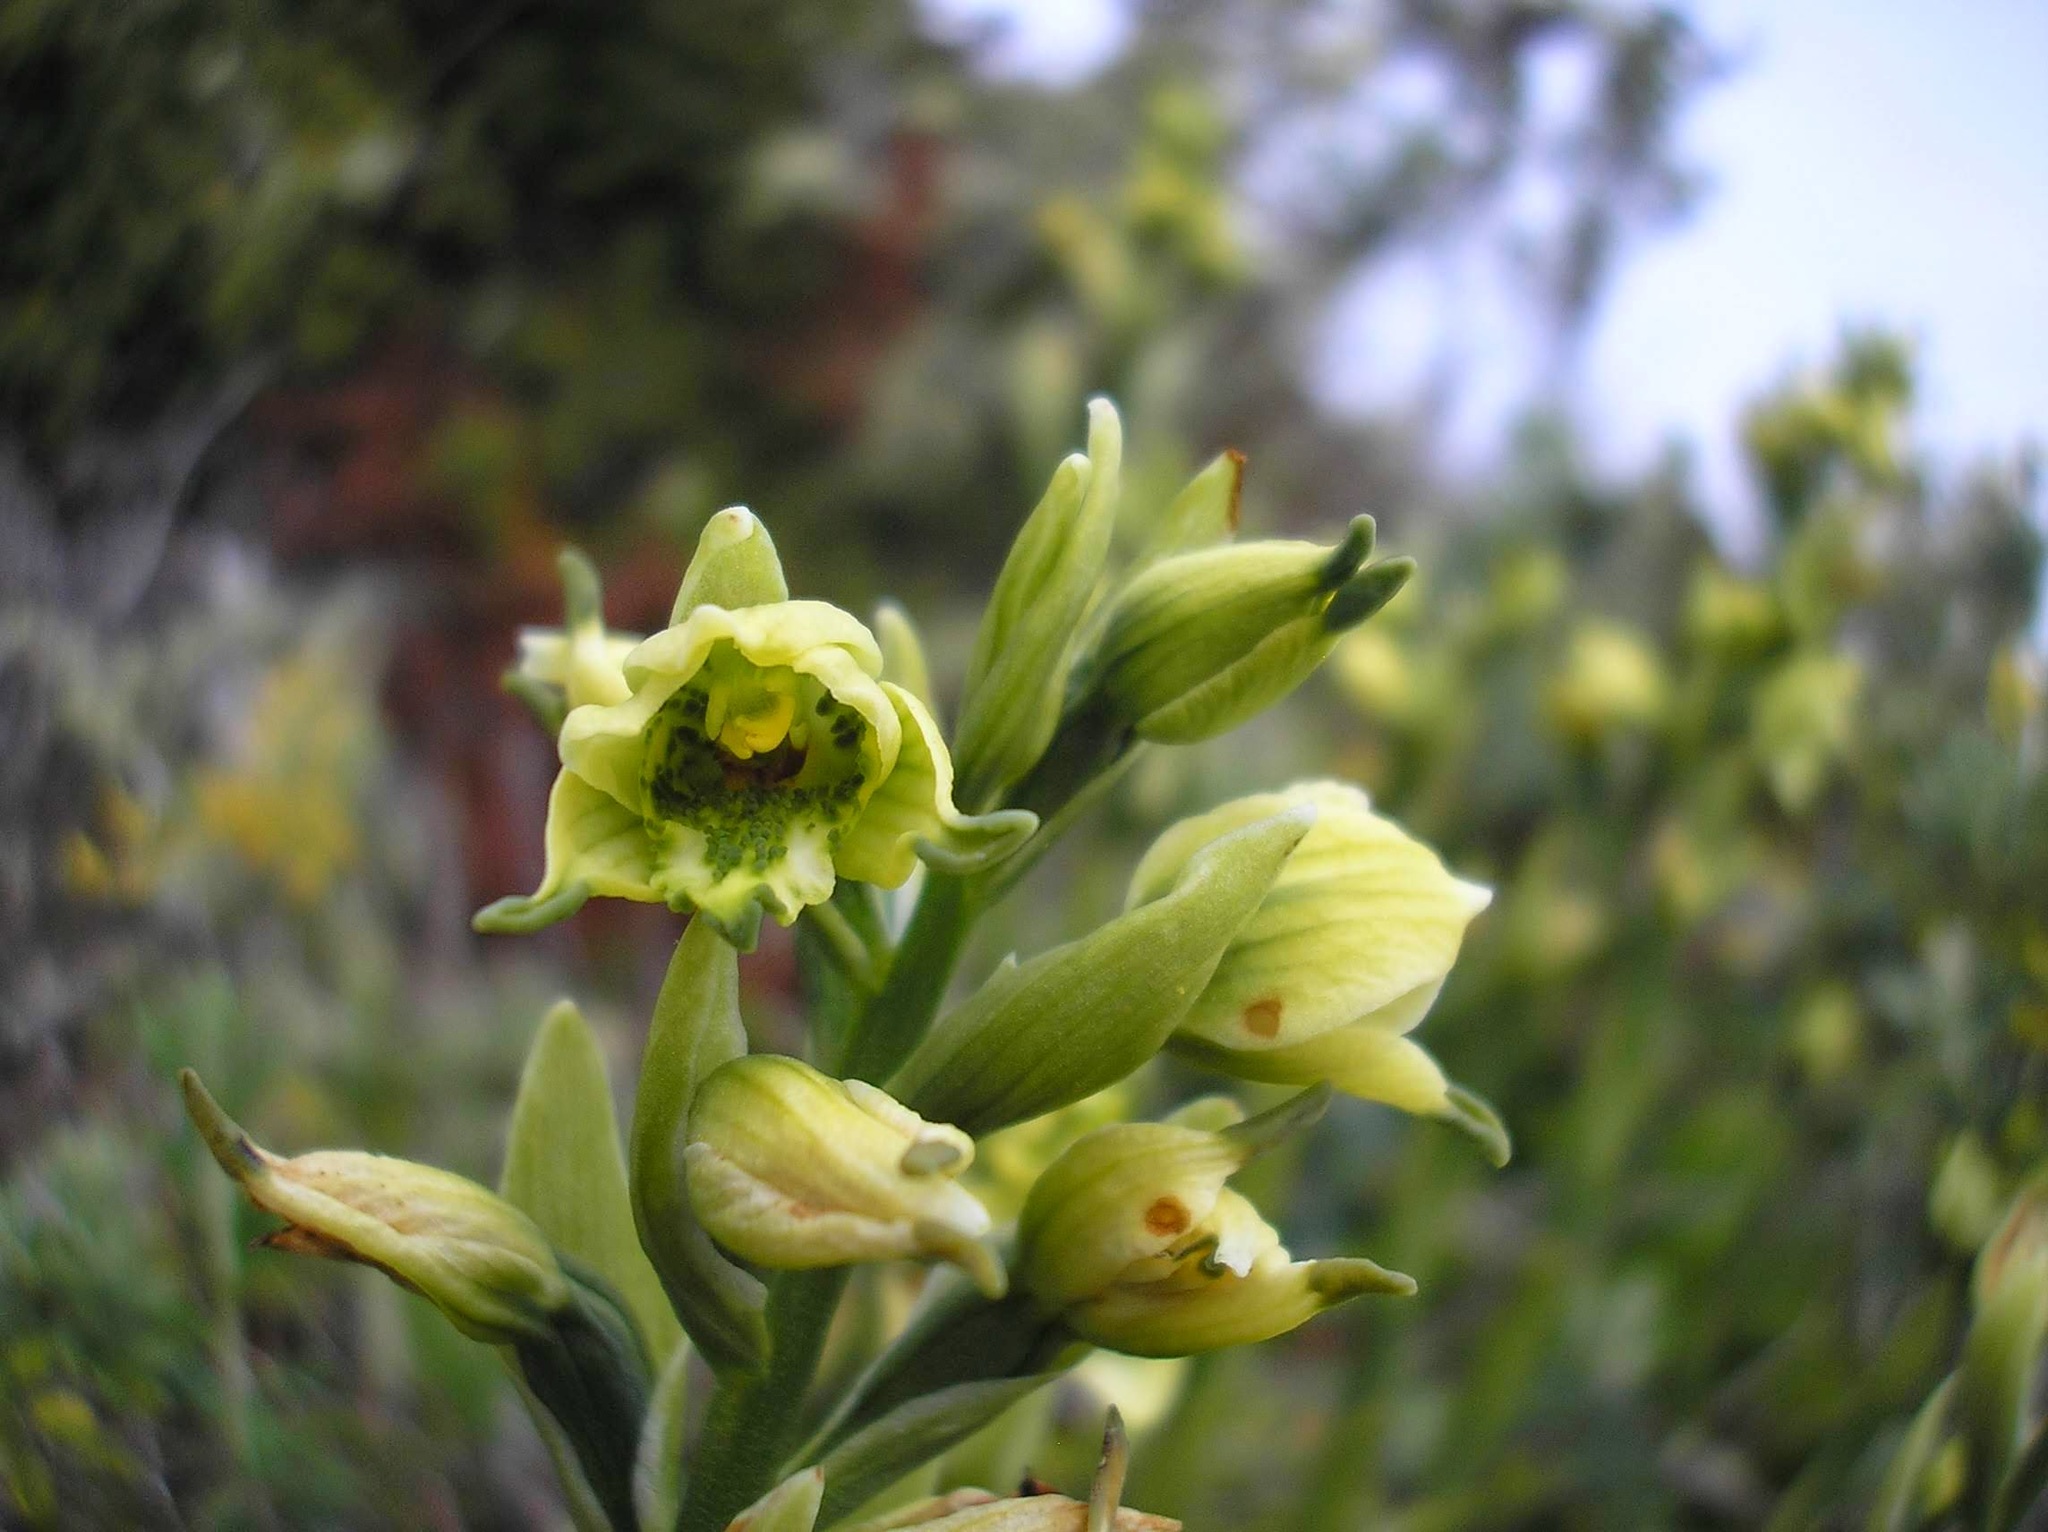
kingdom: Plantae
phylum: Tracheophyta
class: Liliopsida
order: Asparagales
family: Orchidaceae
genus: Gavilea
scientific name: Gavilea australis
